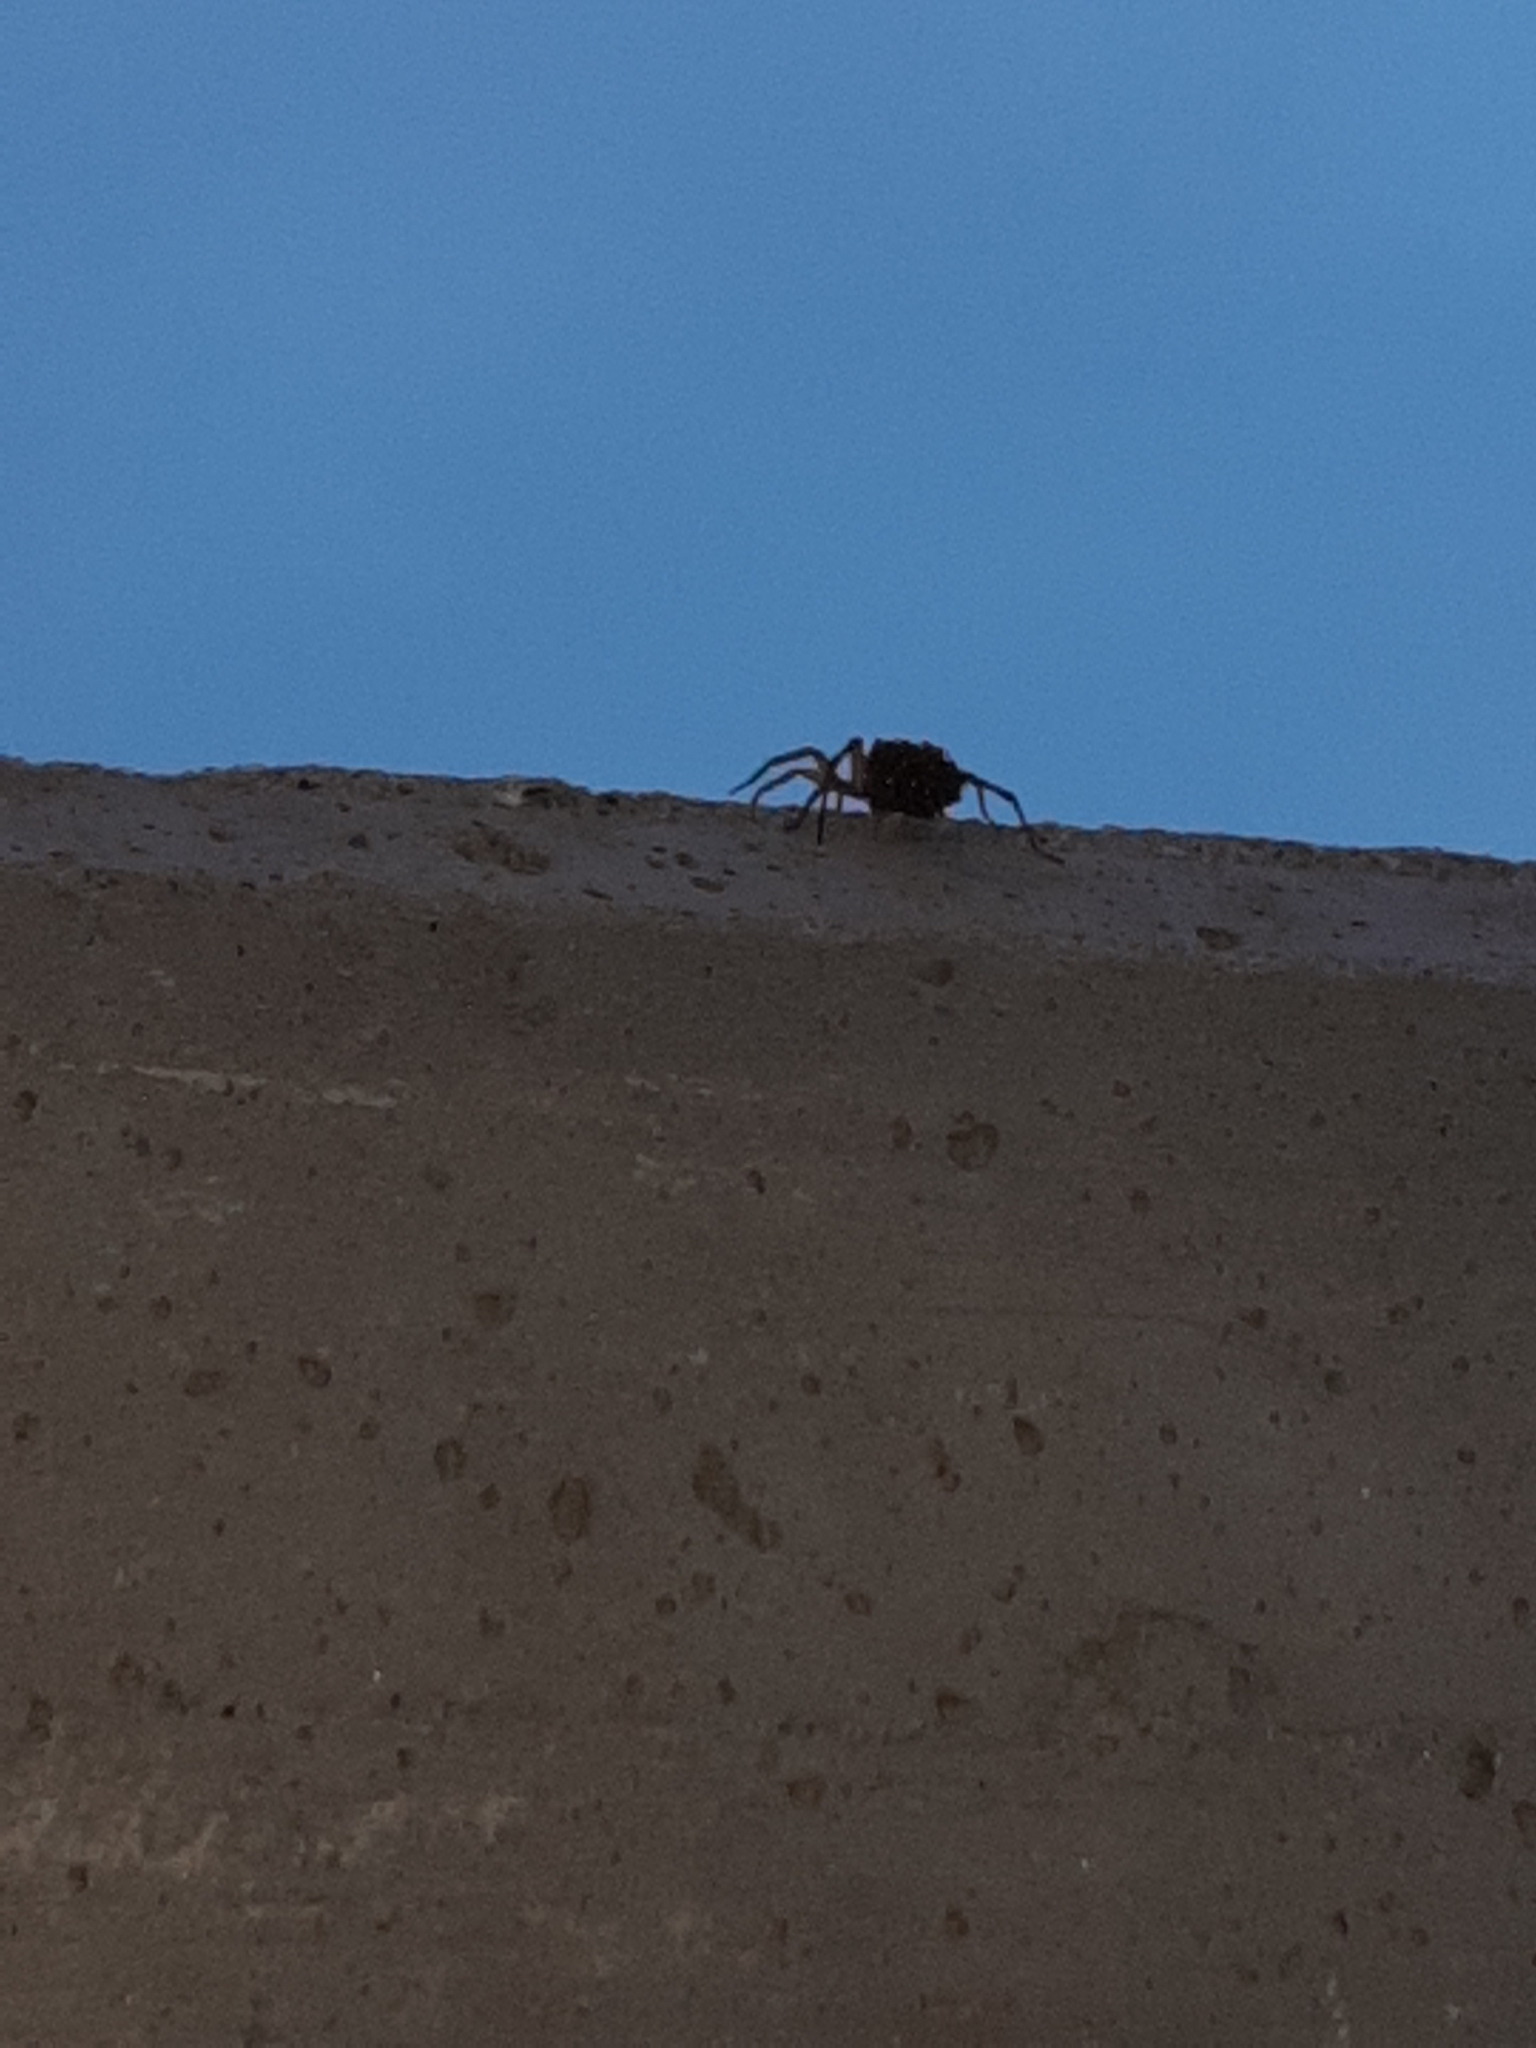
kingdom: Animalia
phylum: Arthropoda
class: Arachnida
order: Araneae
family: Lycosidae
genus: Hogna
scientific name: Hogna radiata
